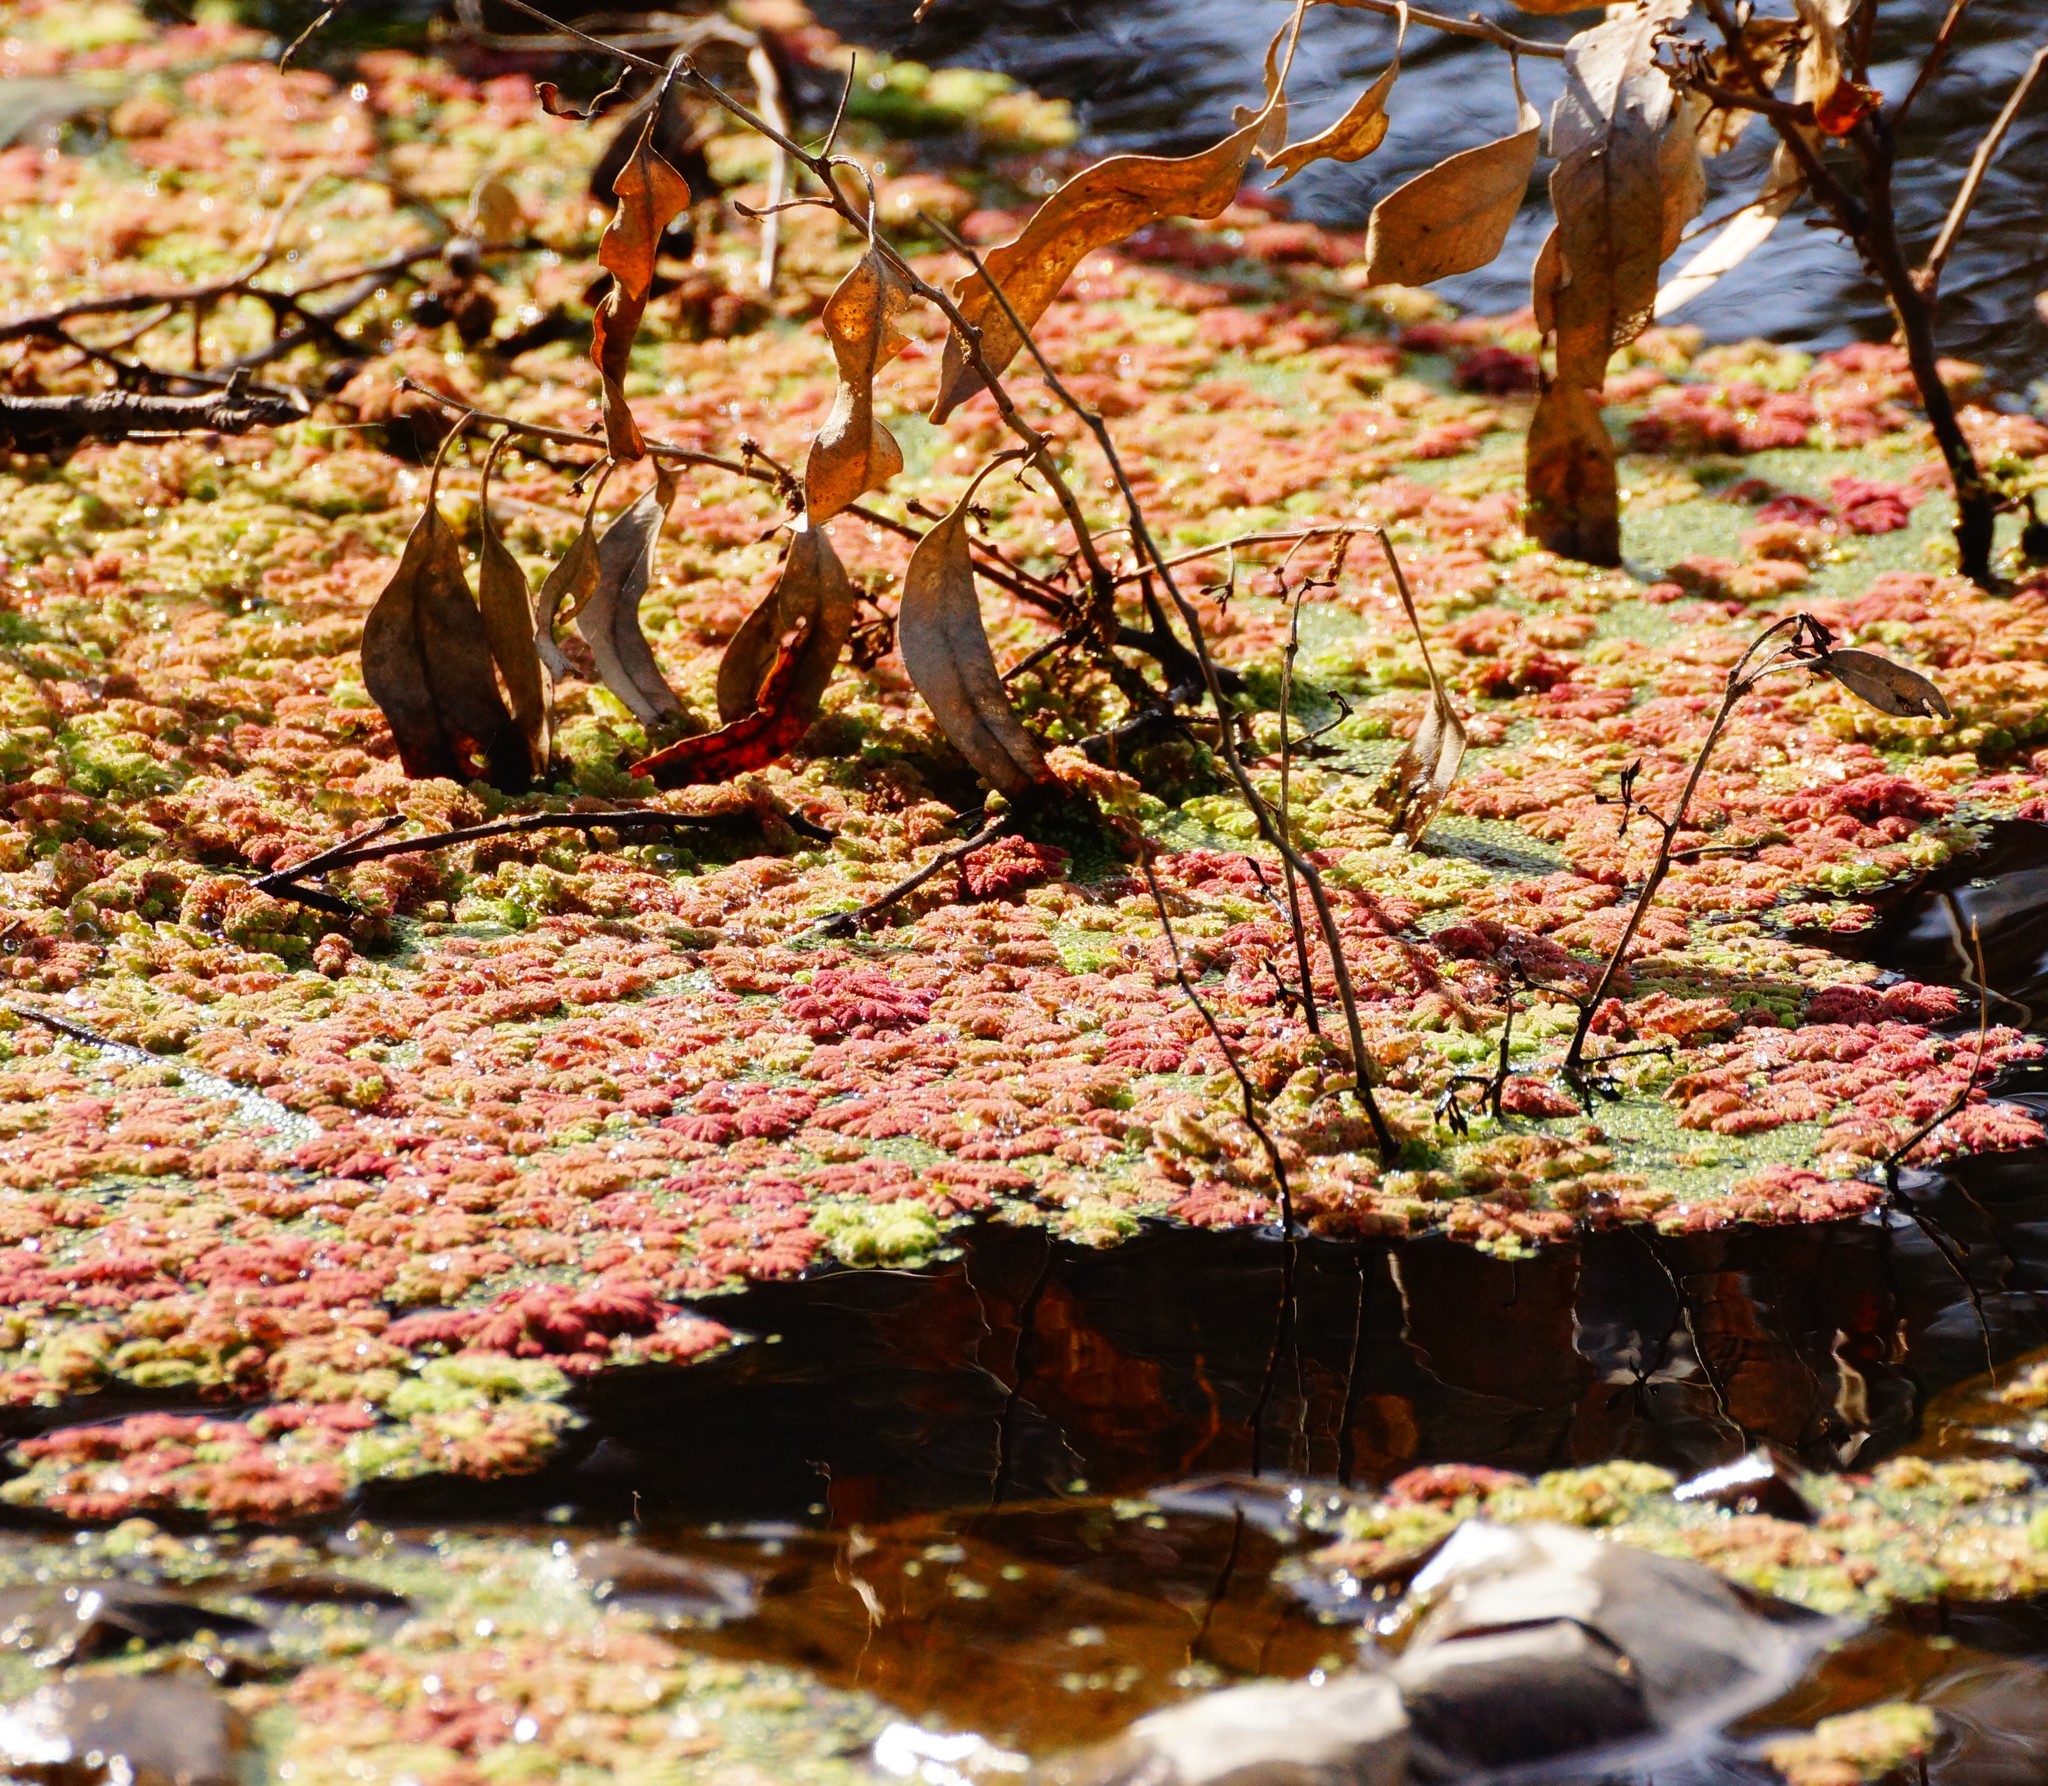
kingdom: Plantae
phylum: Tracheophyta
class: Polypodiopsida
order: Salviniales
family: Salviniaceae
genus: Azolla
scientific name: Azolla rubra
